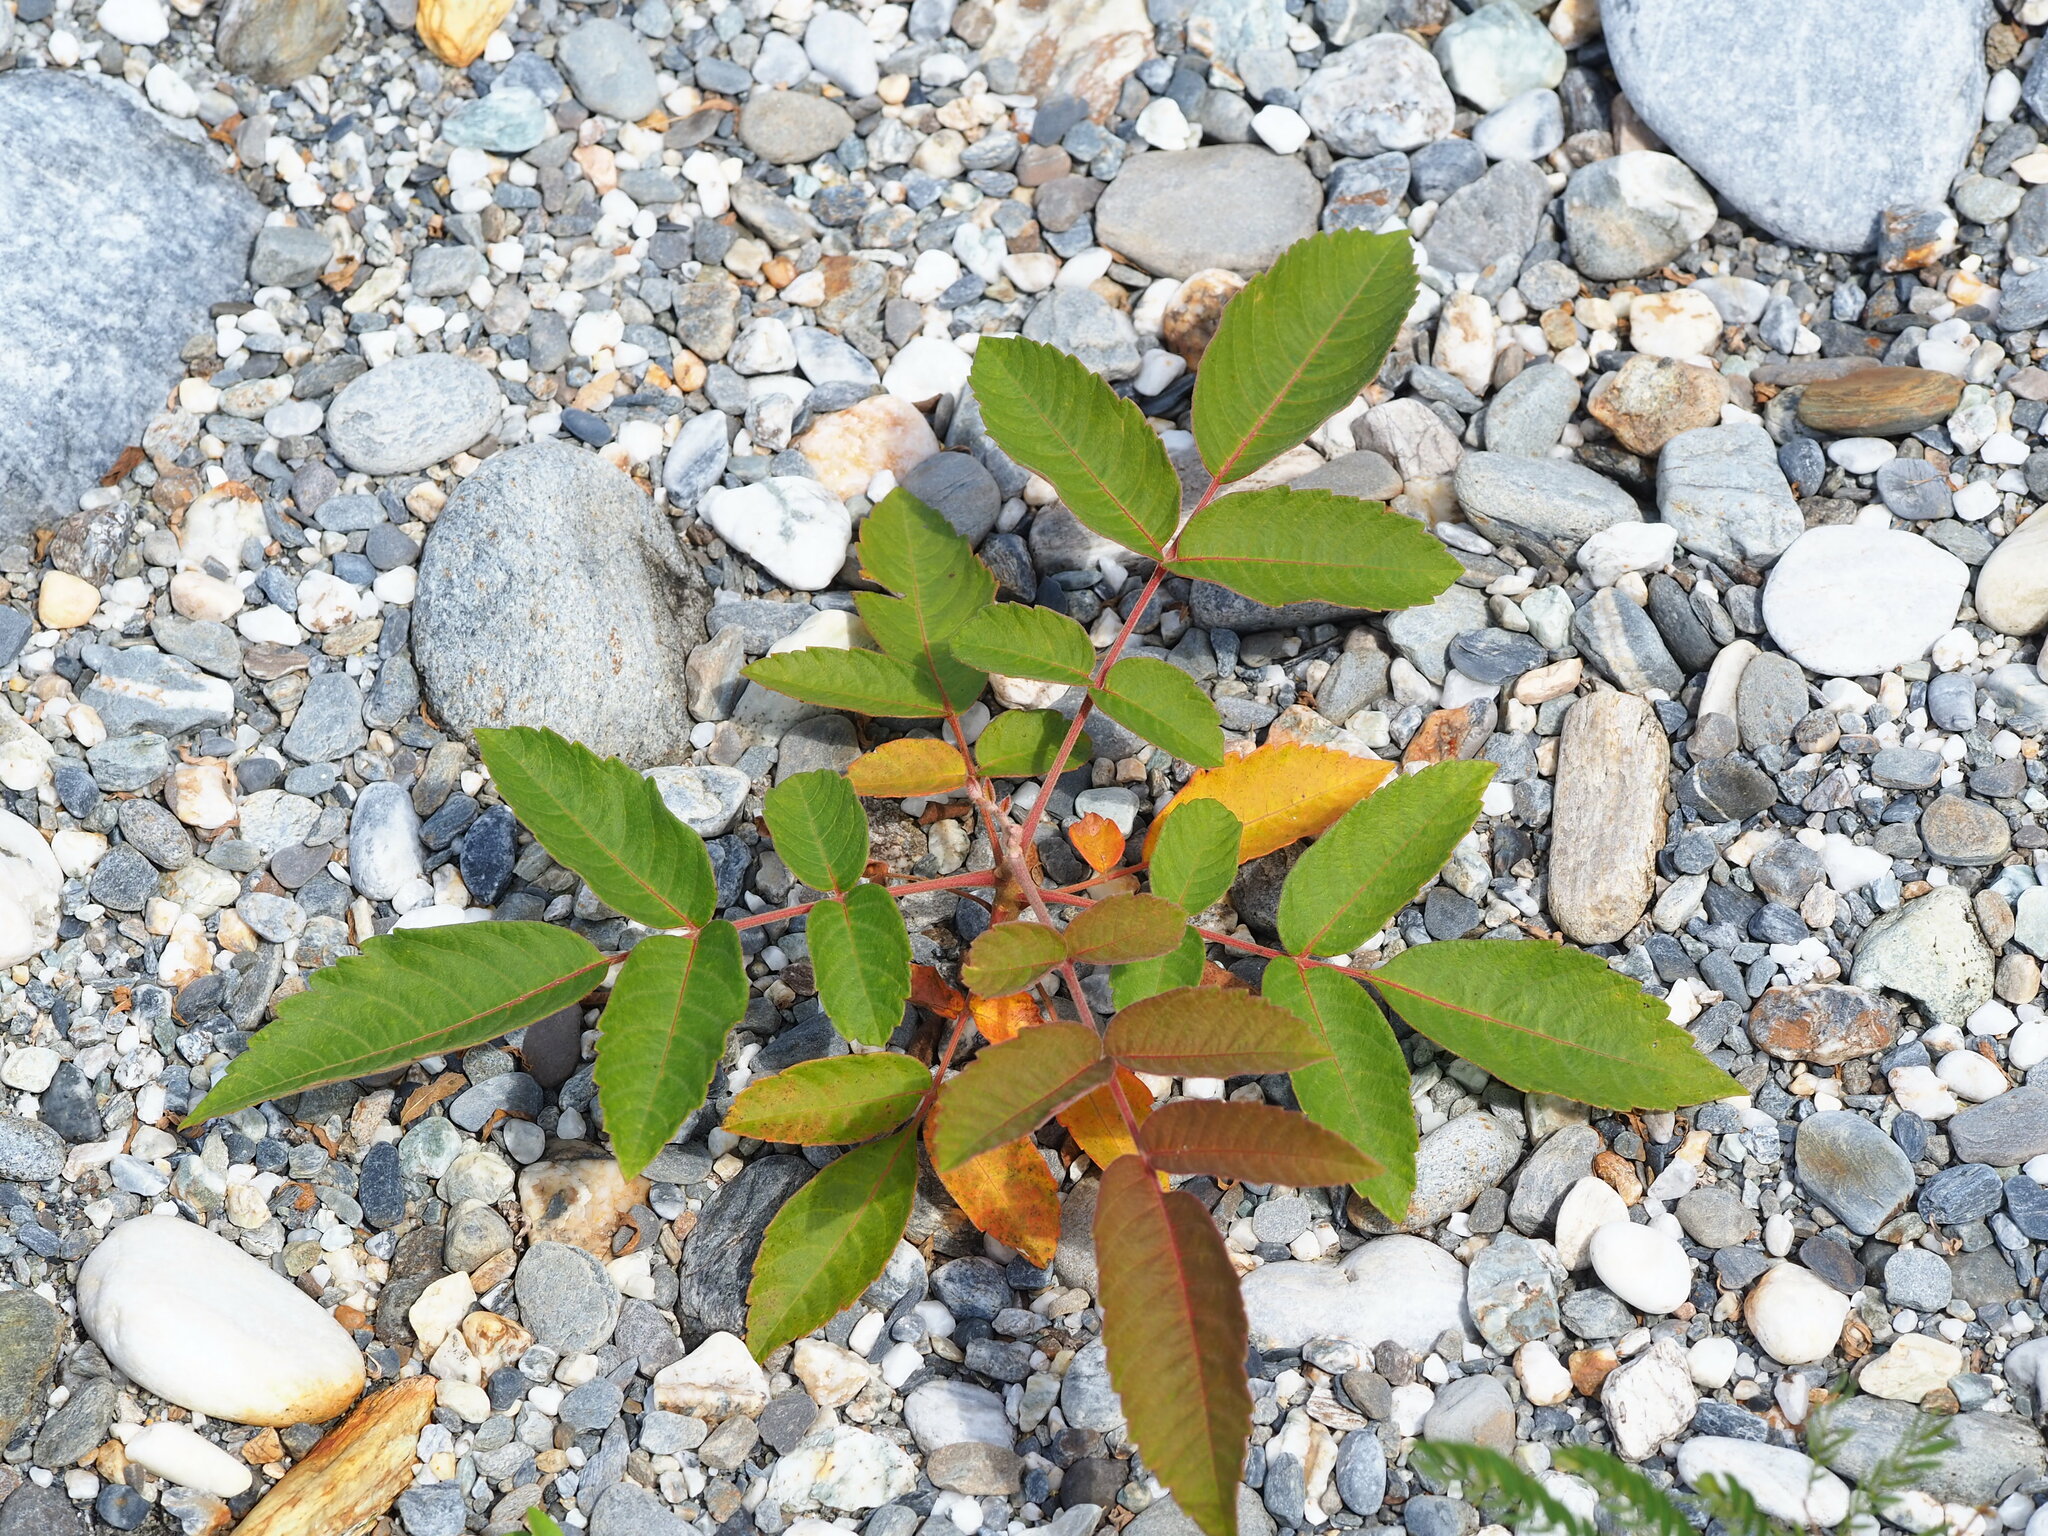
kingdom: Plantae
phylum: Tracheophyta
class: Magnoliopsida
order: Sapindales
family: Anacardiaceae
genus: Rhus
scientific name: Rhus chinensis
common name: Chinese gall
